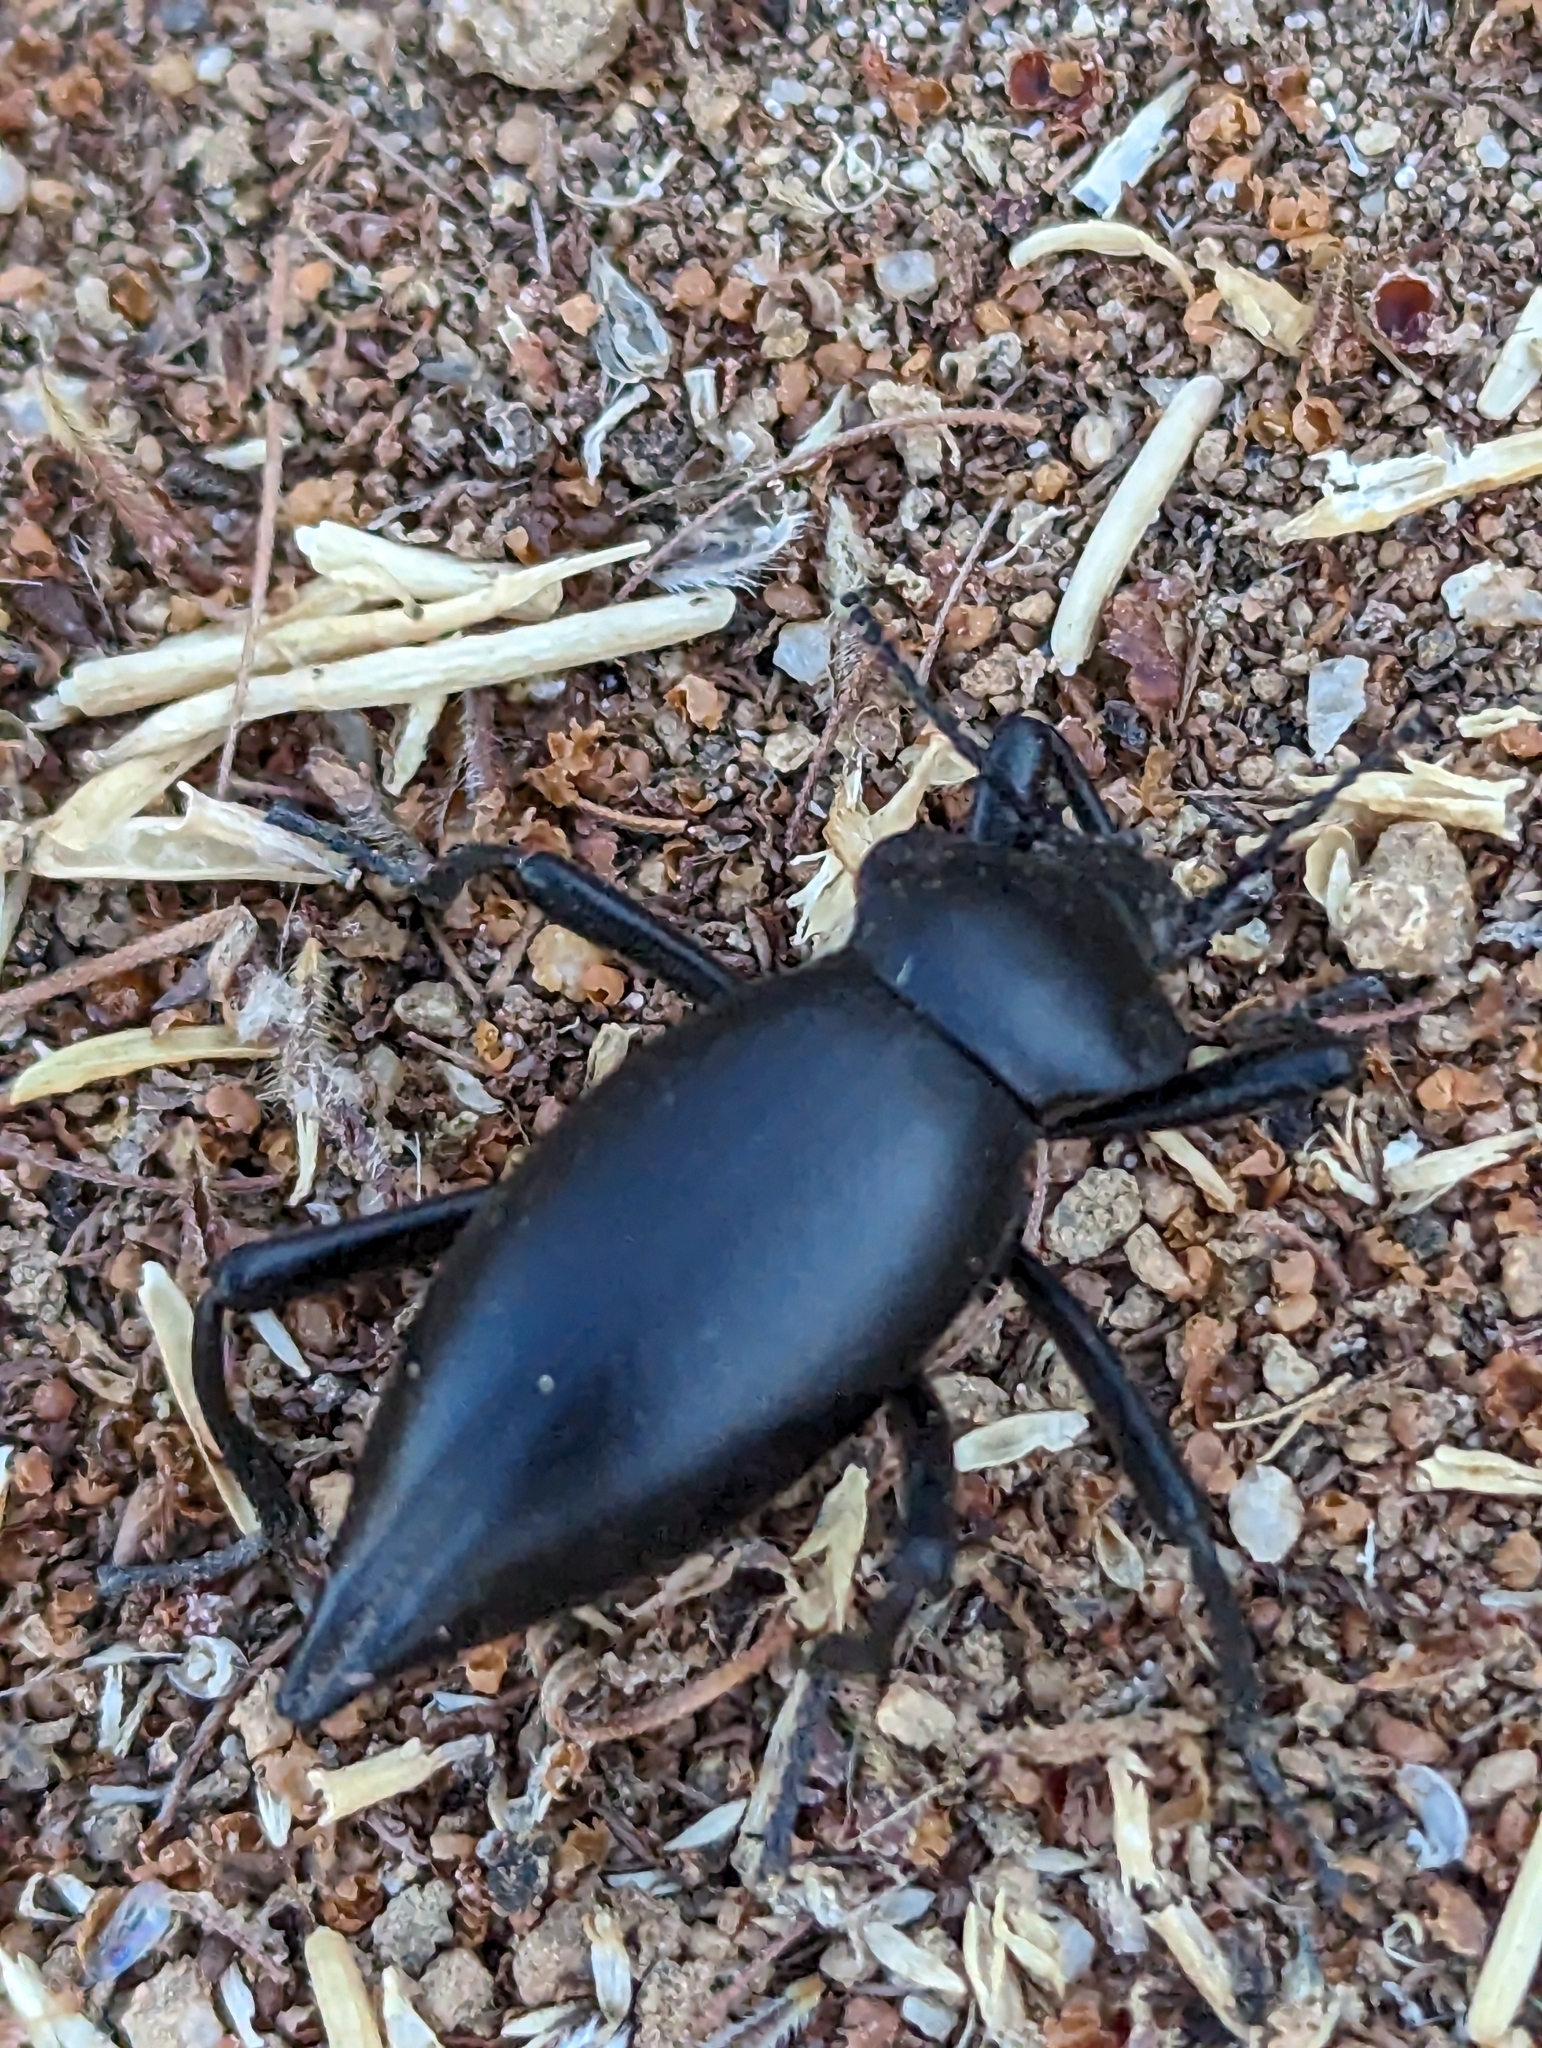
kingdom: Animalia
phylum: Arthropoda
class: Insecta
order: Coleoptera
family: Tenebrionidae
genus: Eleodes
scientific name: Eleodes acuticauda
